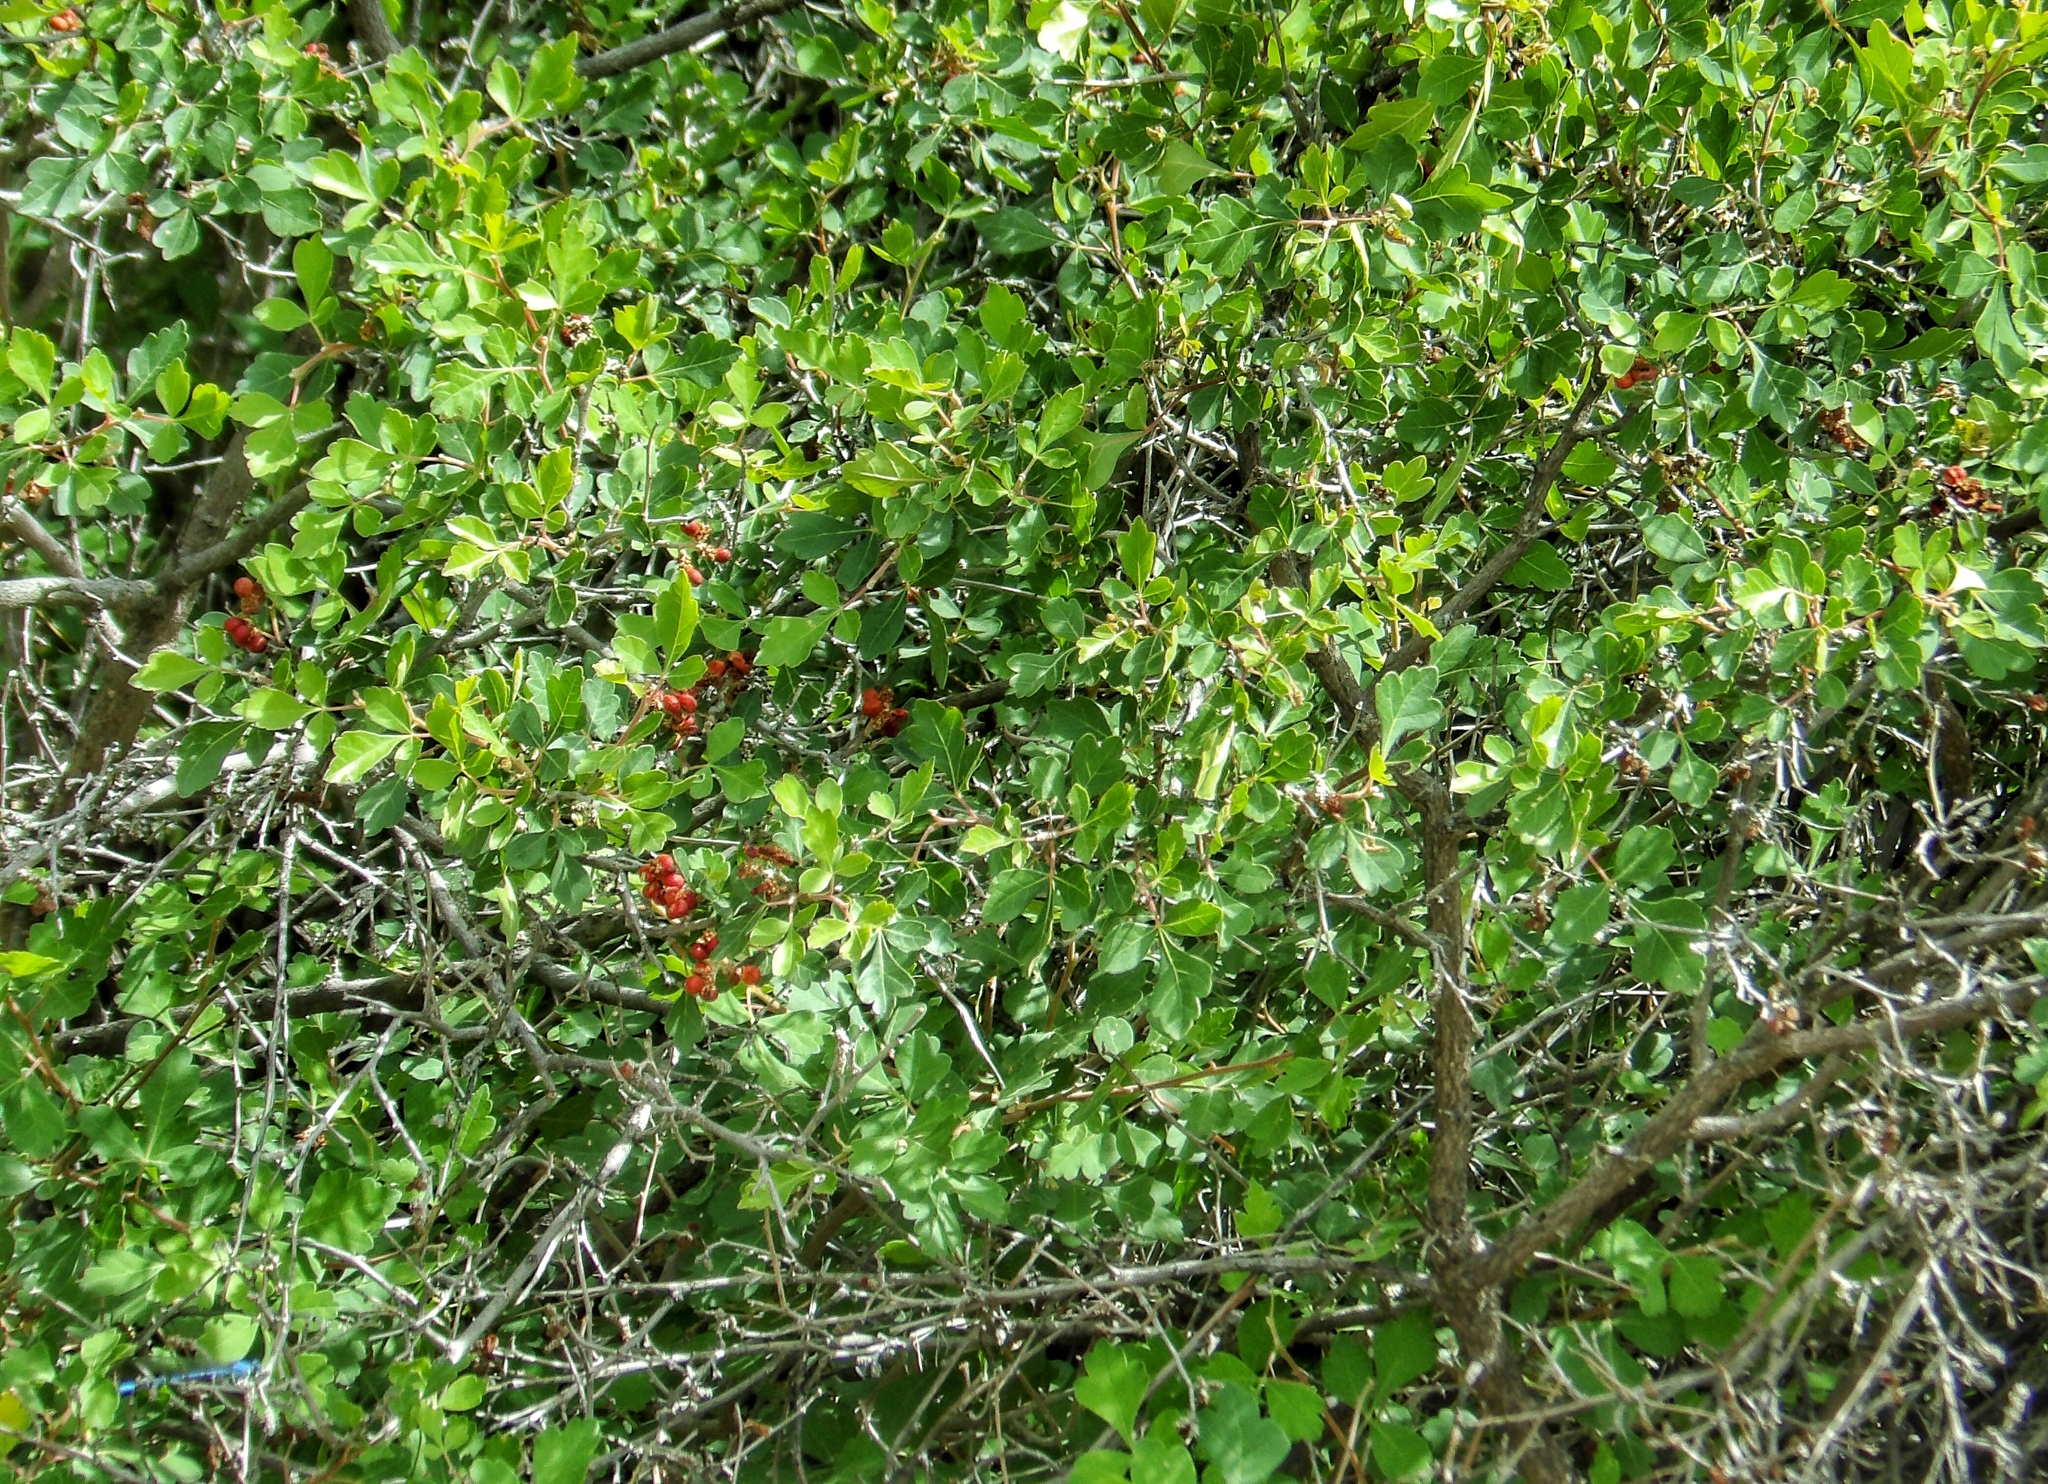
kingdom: Plantae
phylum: Tracheophyta
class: Magnoliopsida
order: Sapindales
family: Anacardiaceae
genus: Rhus
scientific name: Rhus trilobata
